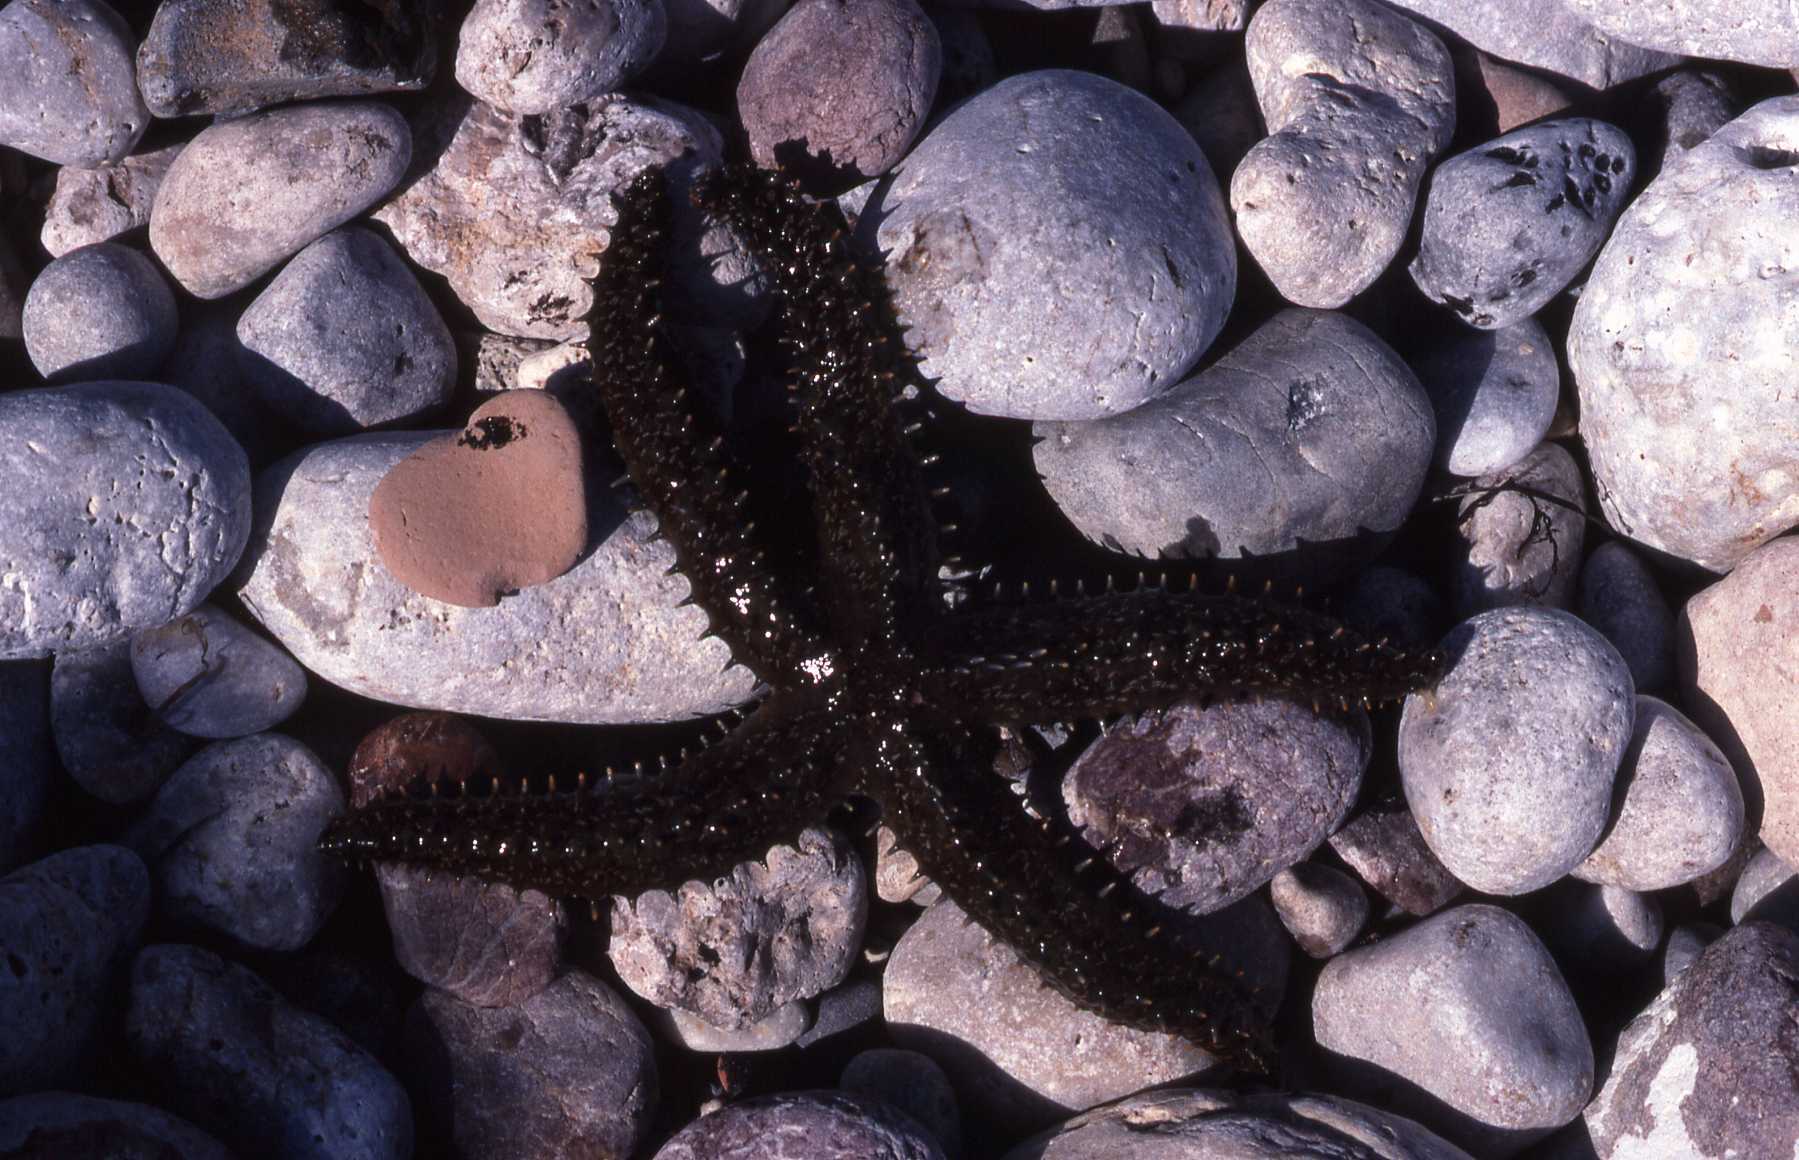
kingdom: Animalia
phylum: Echinodermata
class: Asteroidea
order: Forcipulatida
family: Asteriidae
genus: Marthasterias
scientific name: Marthasterias glacialis
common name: Spiny starfish
